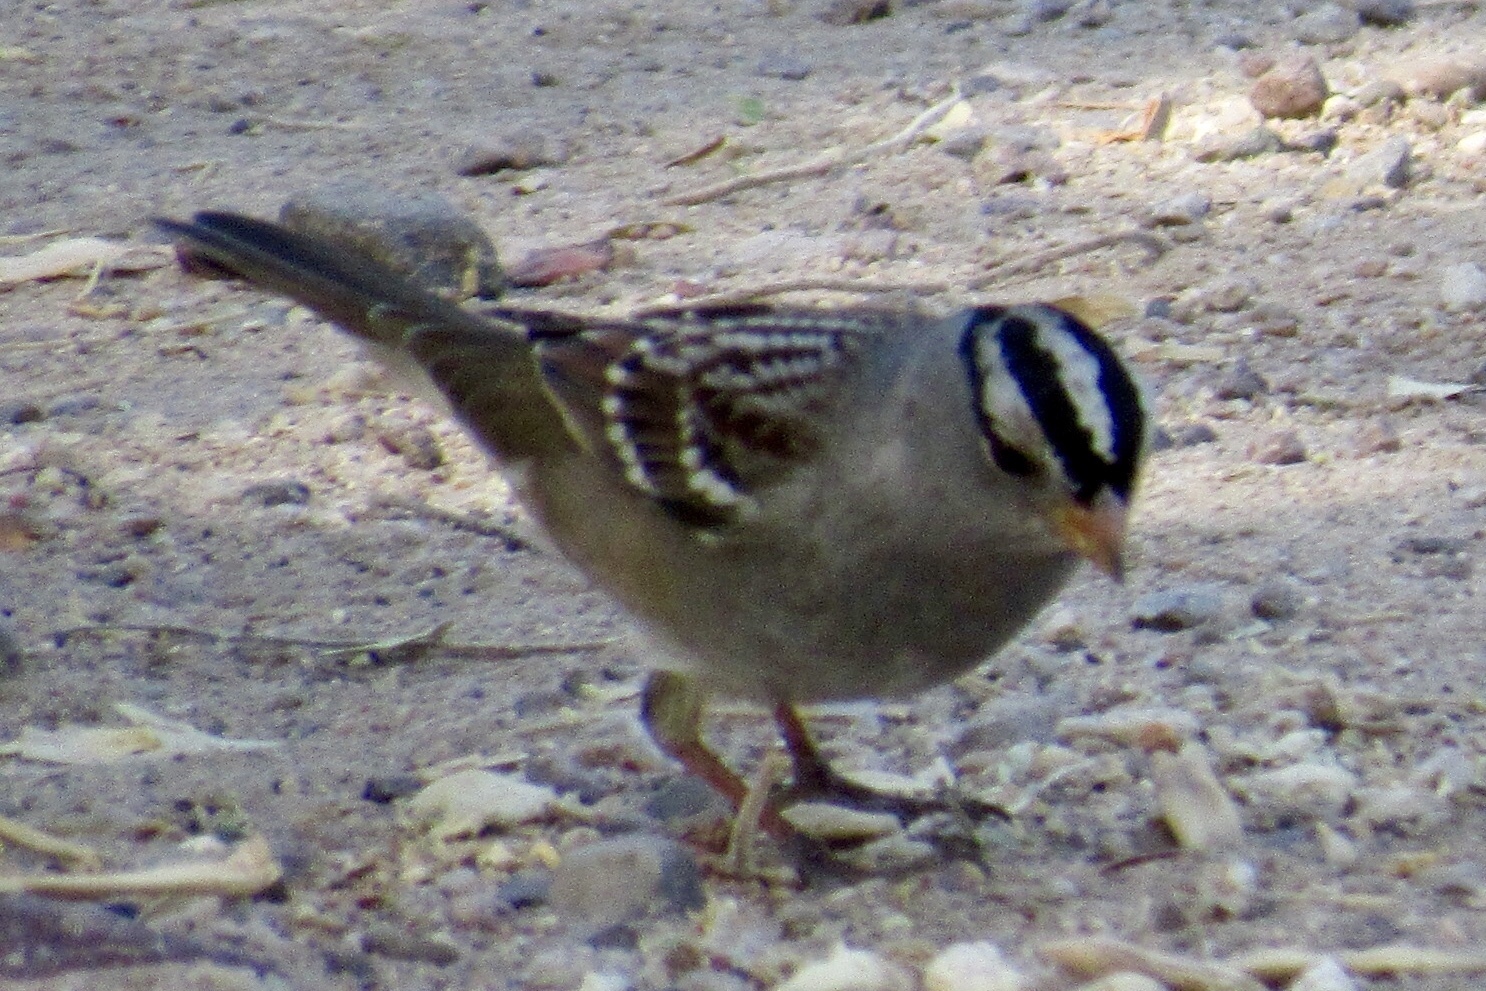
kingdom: Animalia
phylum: Chordata
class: Aves
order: Passeriformes
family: Passerellidae
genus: Zonotrichia
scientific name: Zonotrichia leucophrys
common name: White-crowned sparrow
